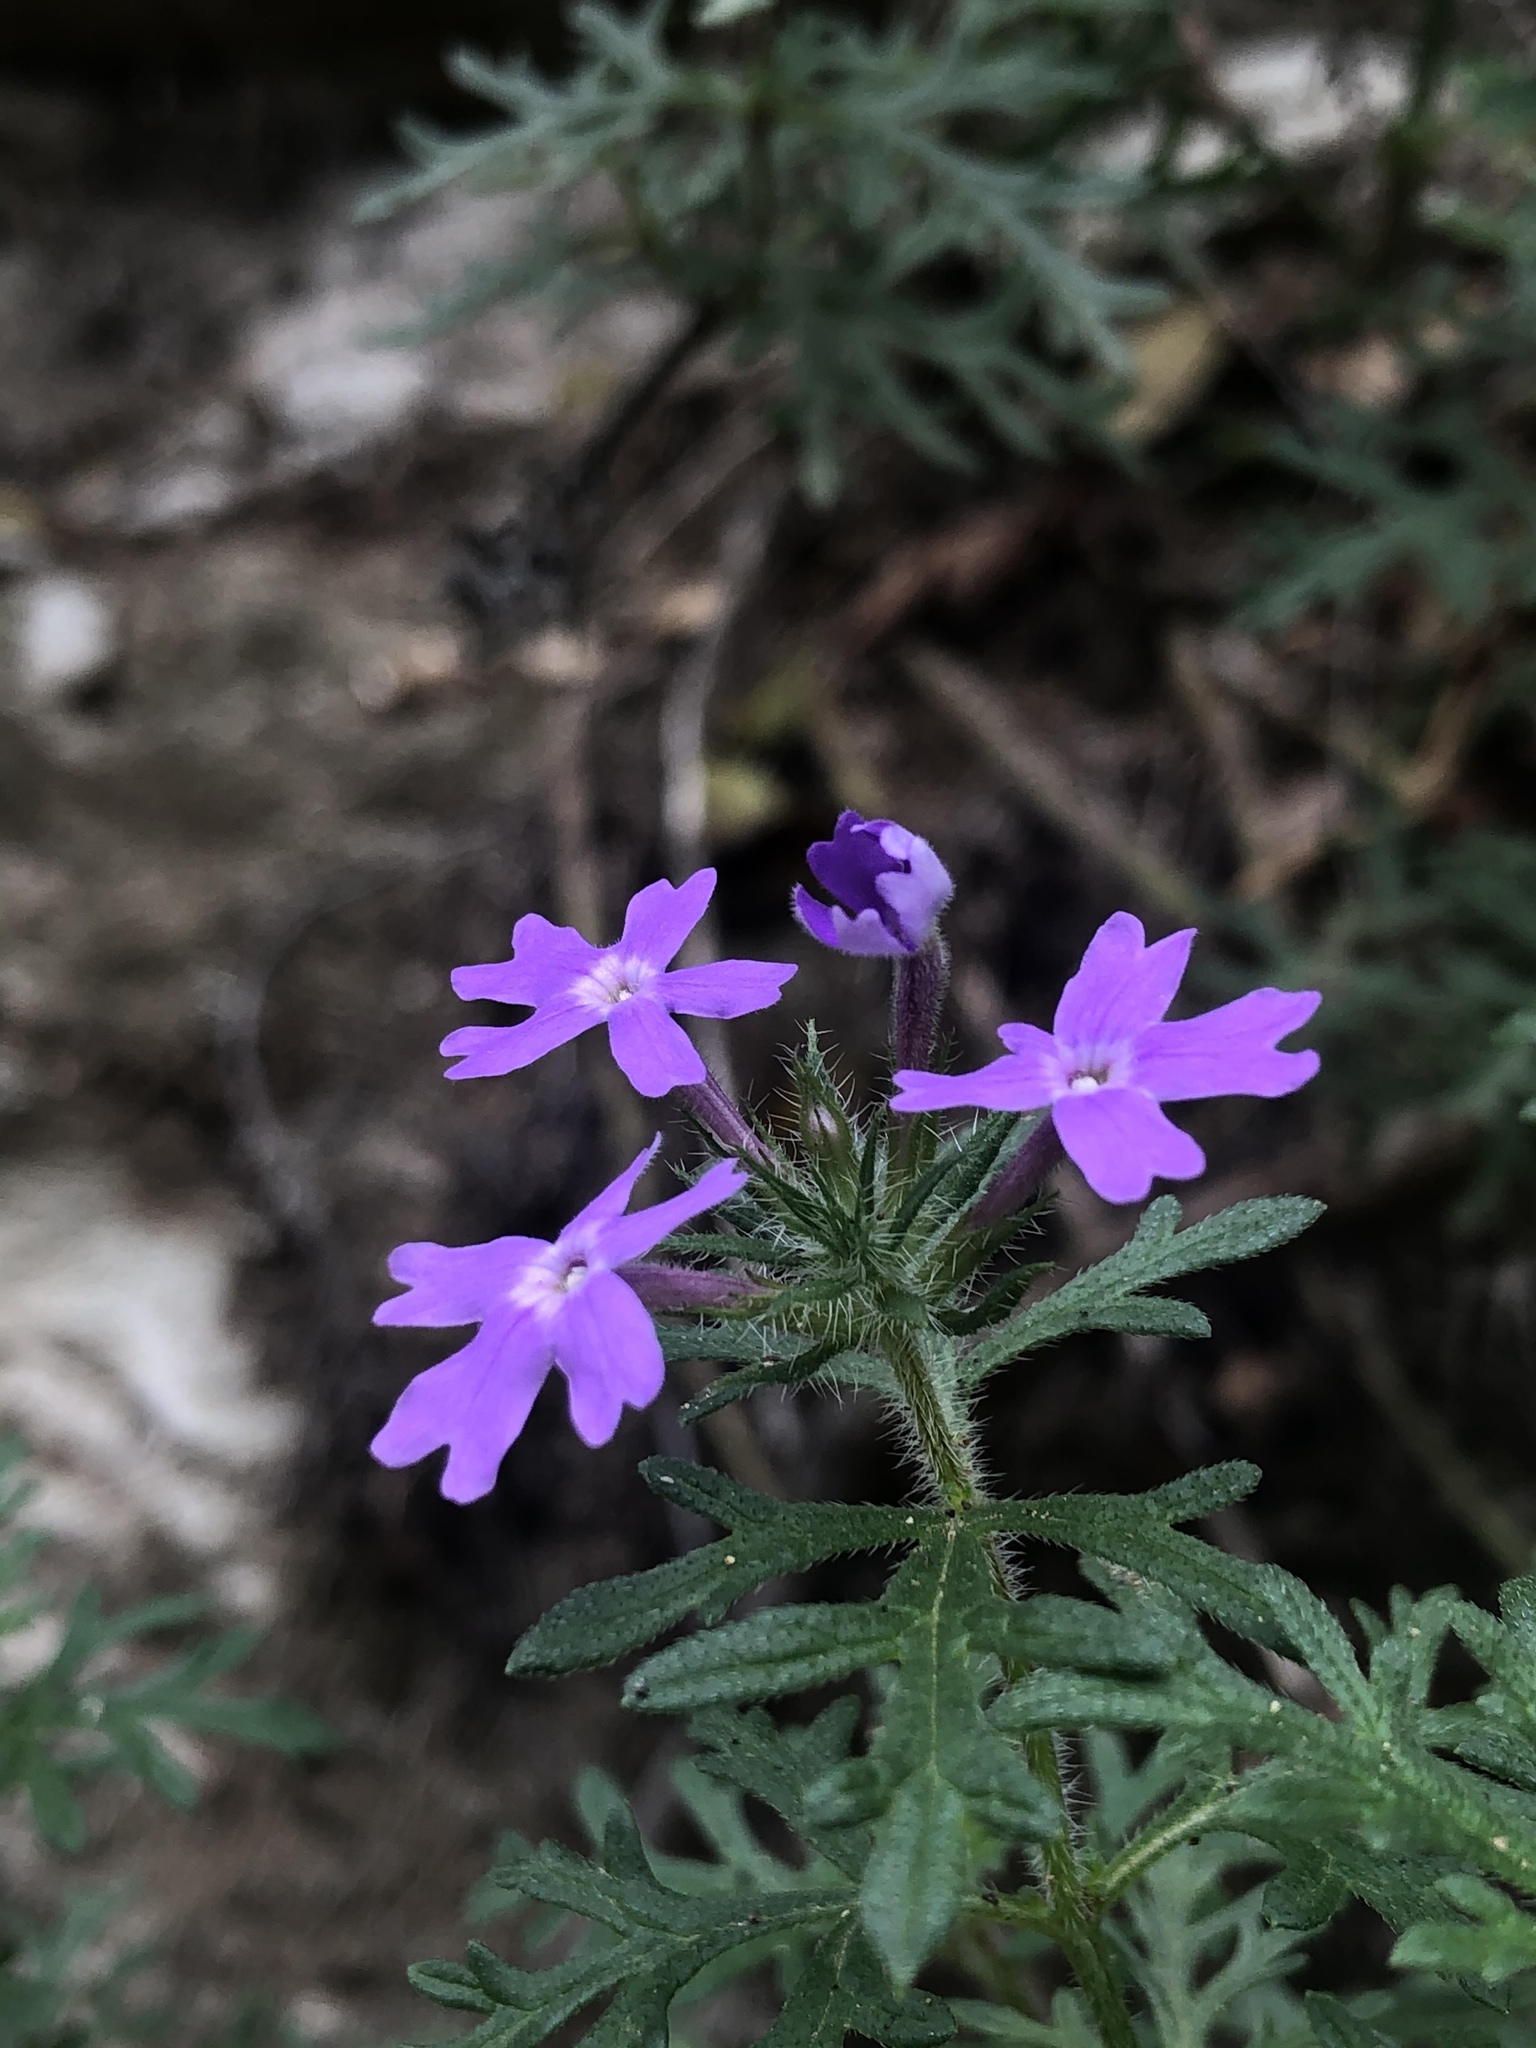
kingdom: Plantae
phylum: Tracheophyta
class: Magnoliopsida
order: Lamiales
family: Verbenaceae
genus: Verbena
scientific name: Verbena bipinnatifida
